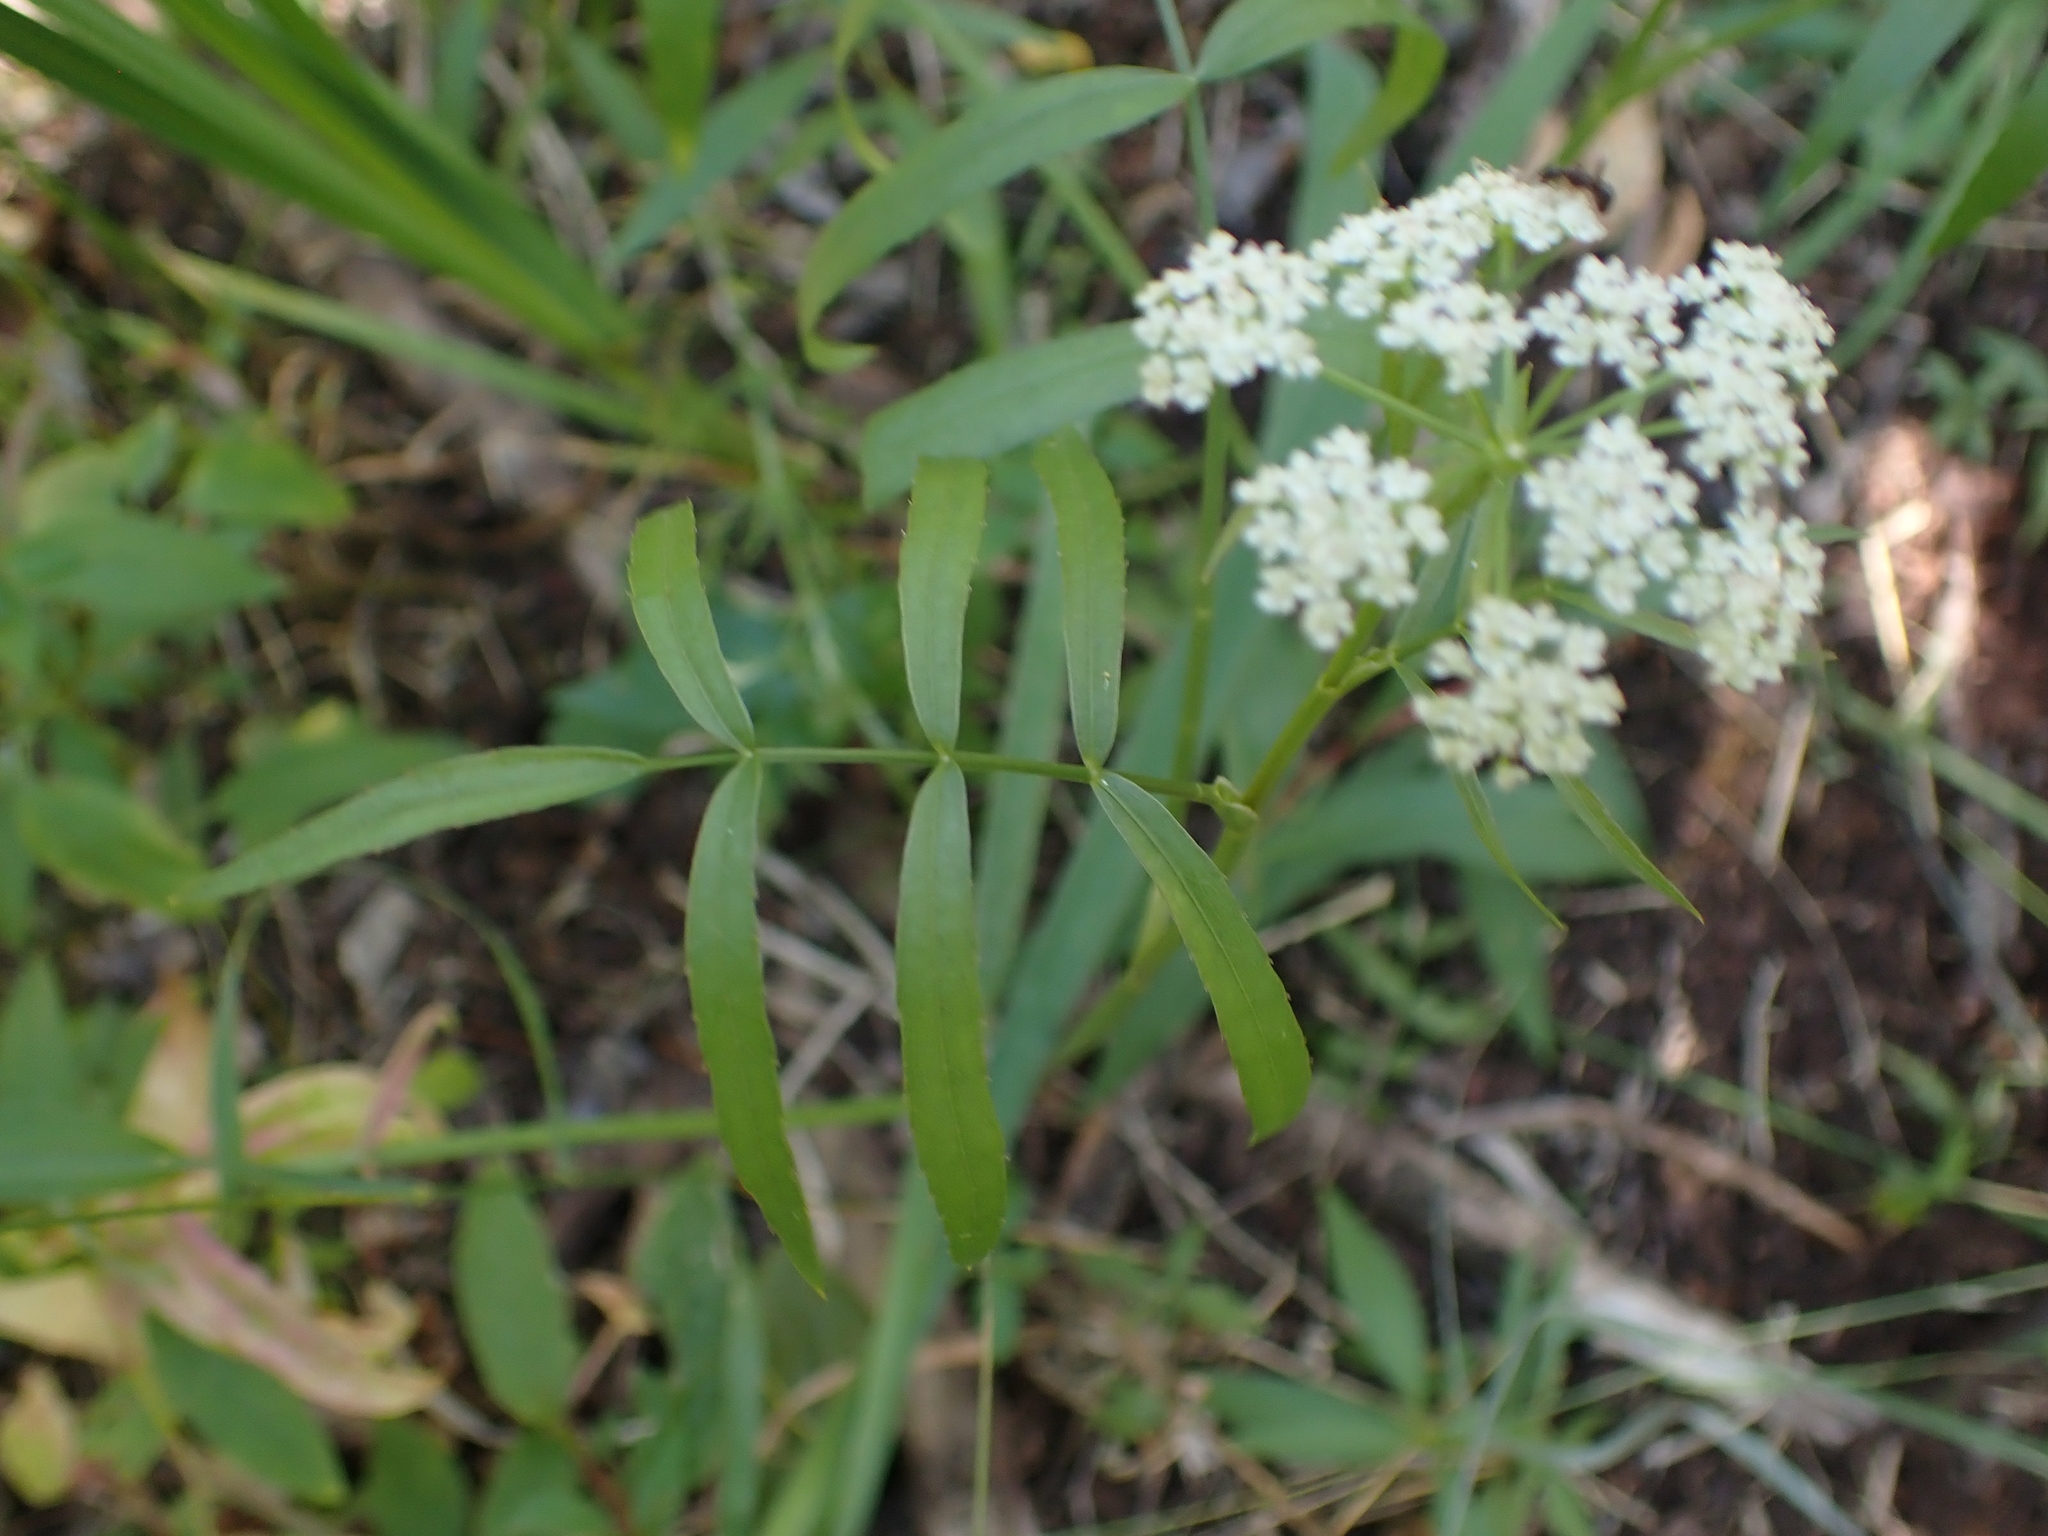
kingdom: Plantae
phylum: Tracheophyta
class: Magnoliopsida
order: Apiales
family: Apiaceae
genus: Sium
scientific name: Sium suave
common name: Hemlock water-parsnip
